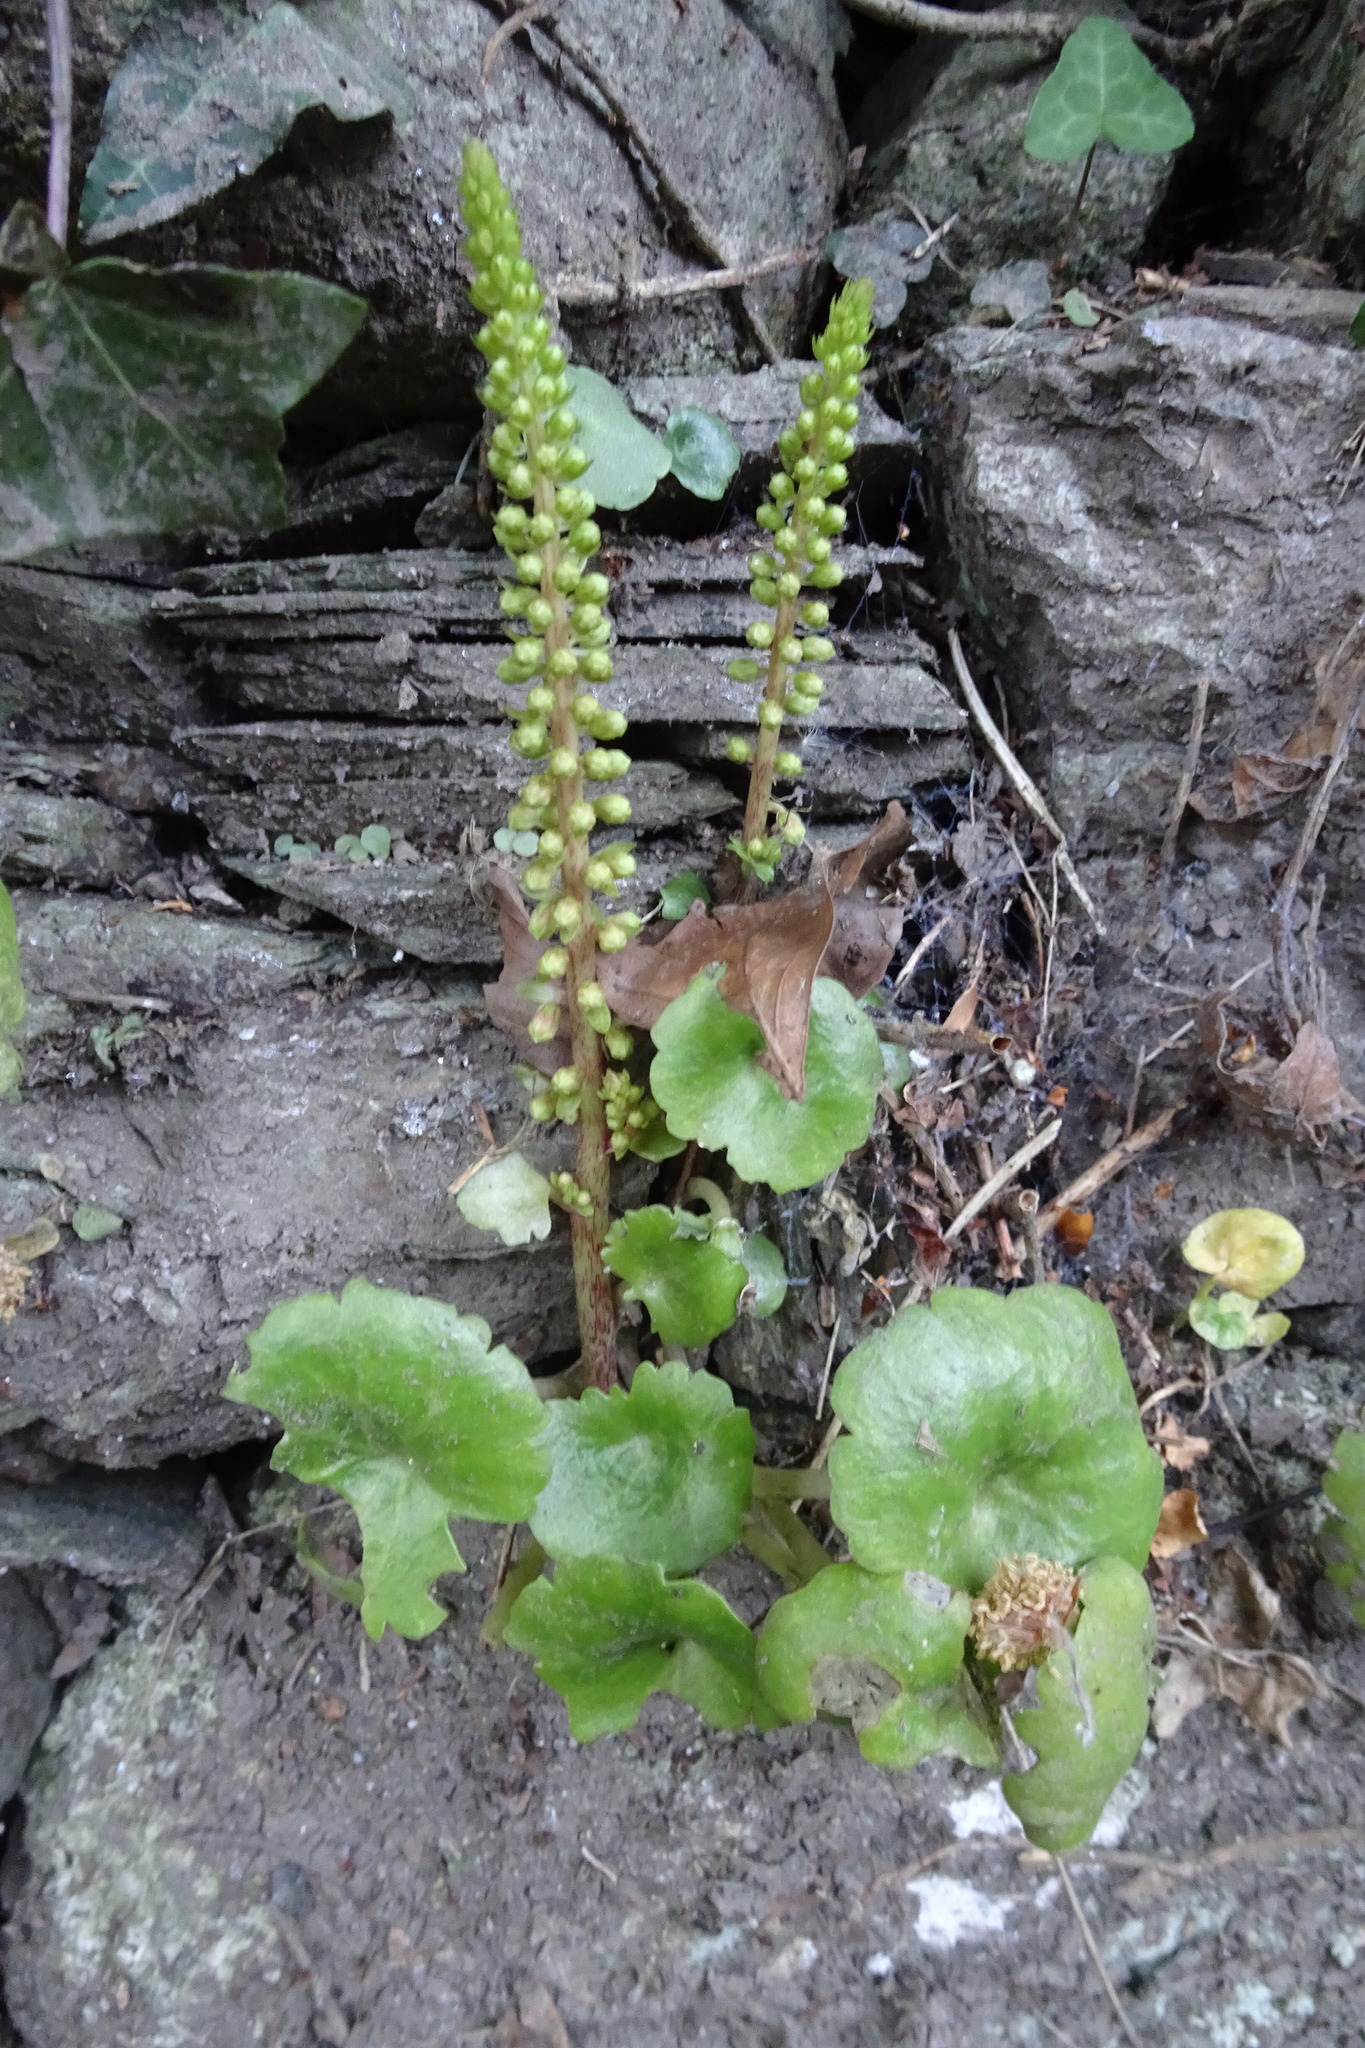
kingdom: Plantae
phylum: Tracheophyta
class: Magnoliopsida
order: Saxifragales
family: Crassulaceae
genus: Umbilicus
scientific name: Umbilicus rupestris
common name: Navelwort
